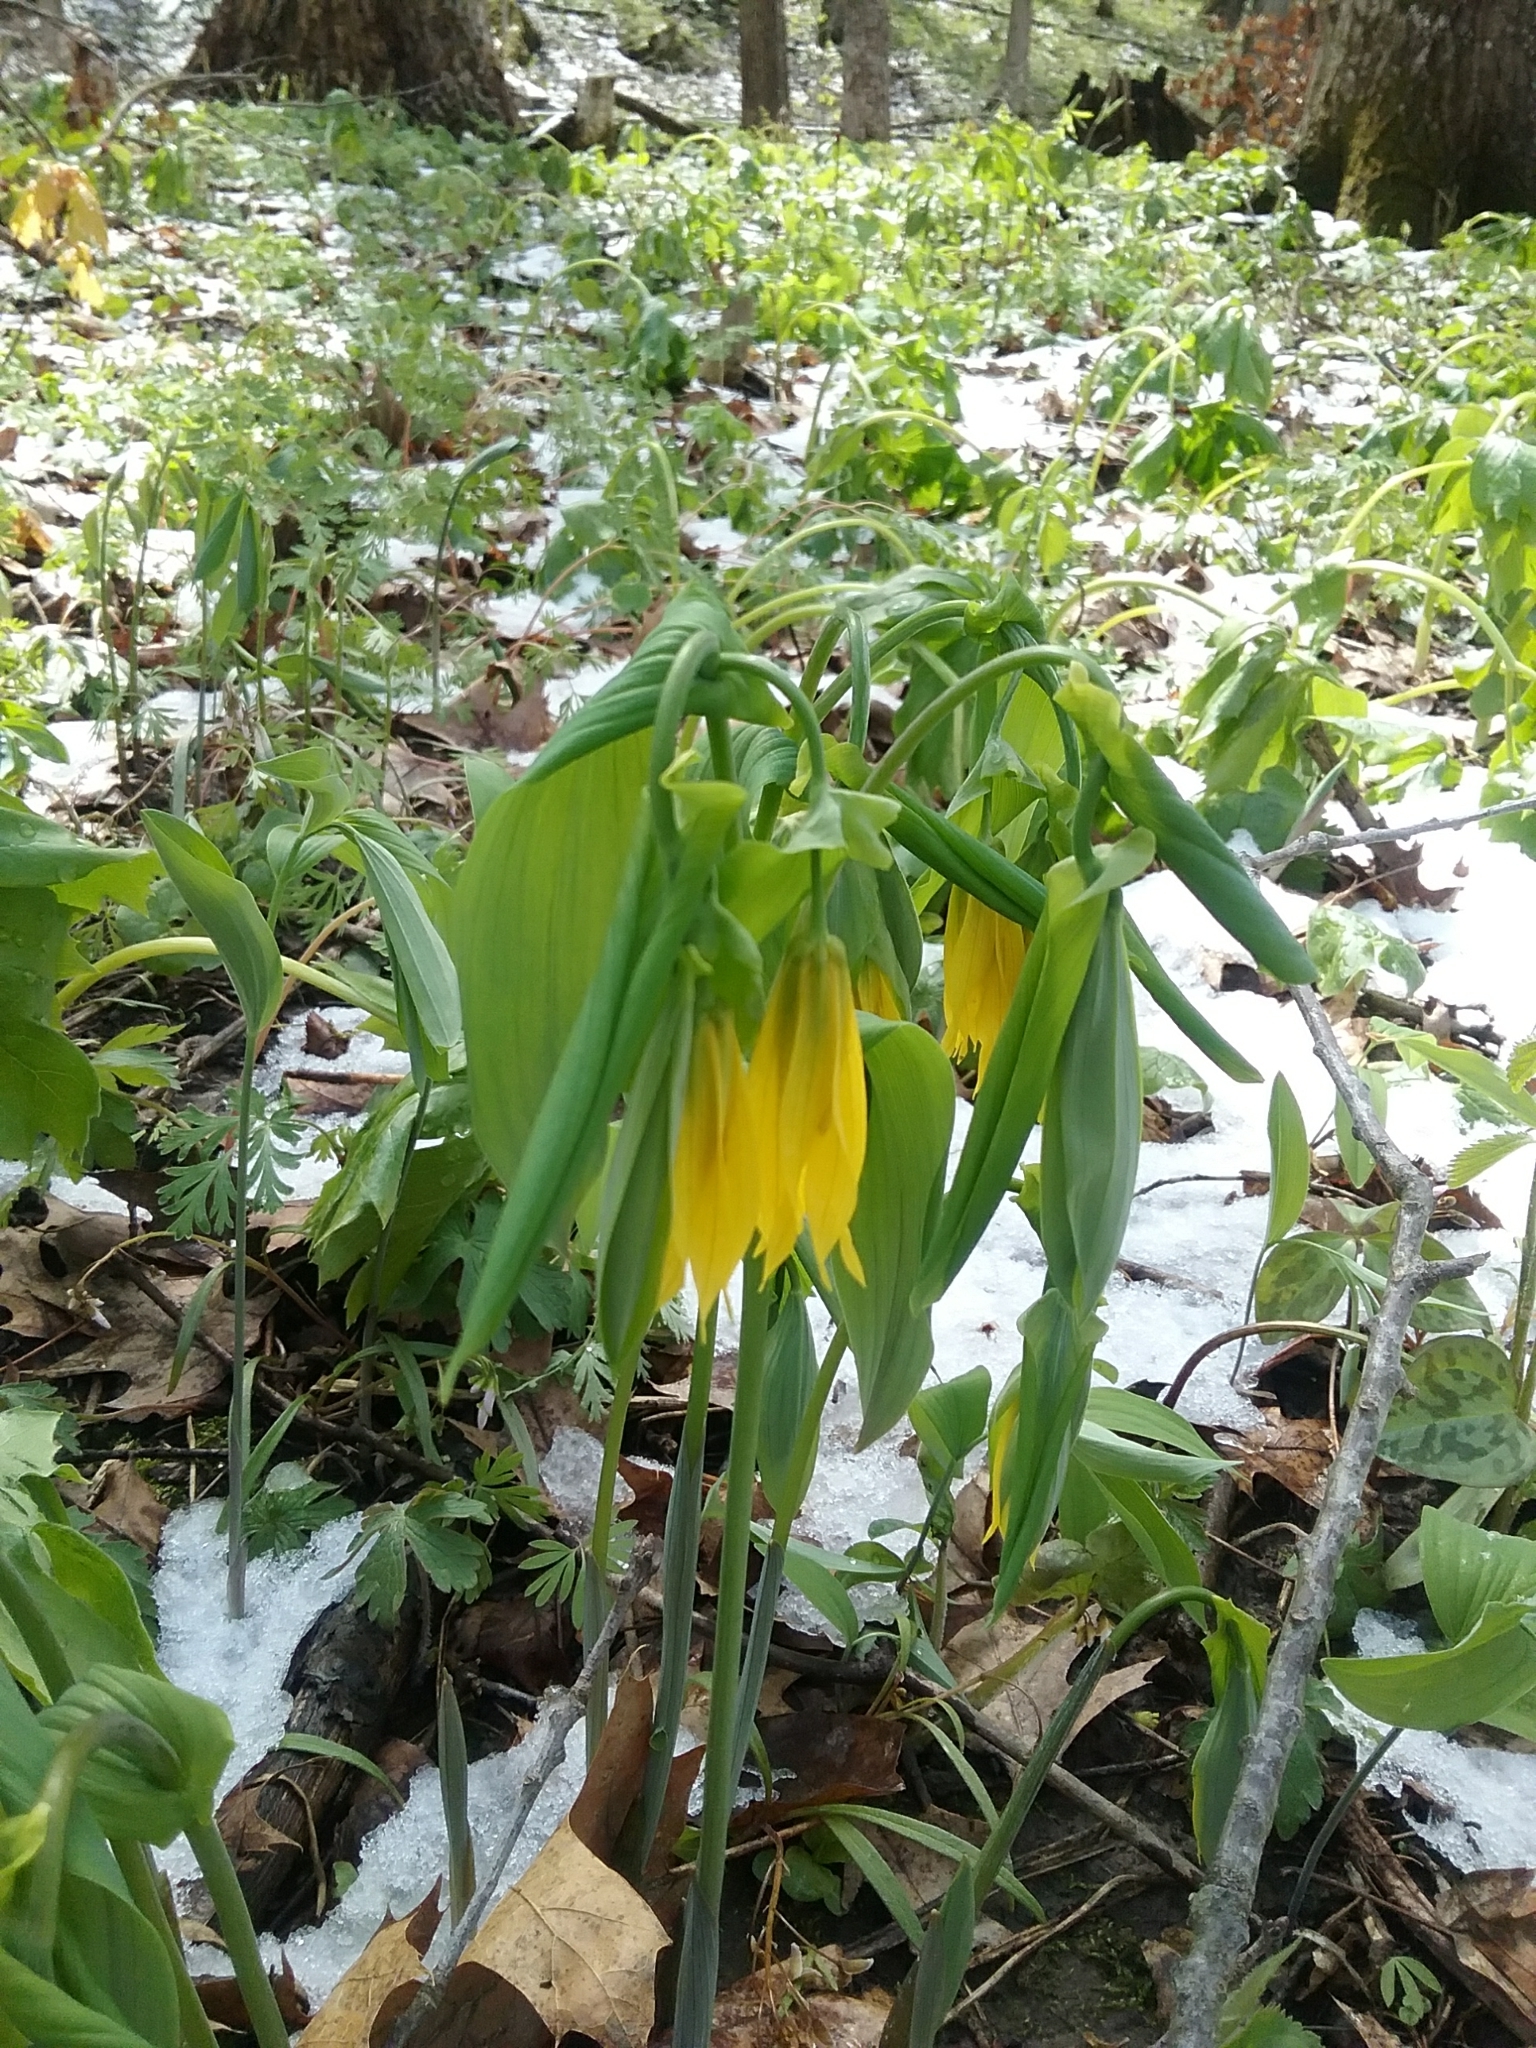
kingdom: Plantae
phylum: Tracheophyta
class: Liliopsida
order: Liliales
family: Colchicaceae
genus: Uvularia
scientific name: Uvularia grandiflora
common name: Bellwort
